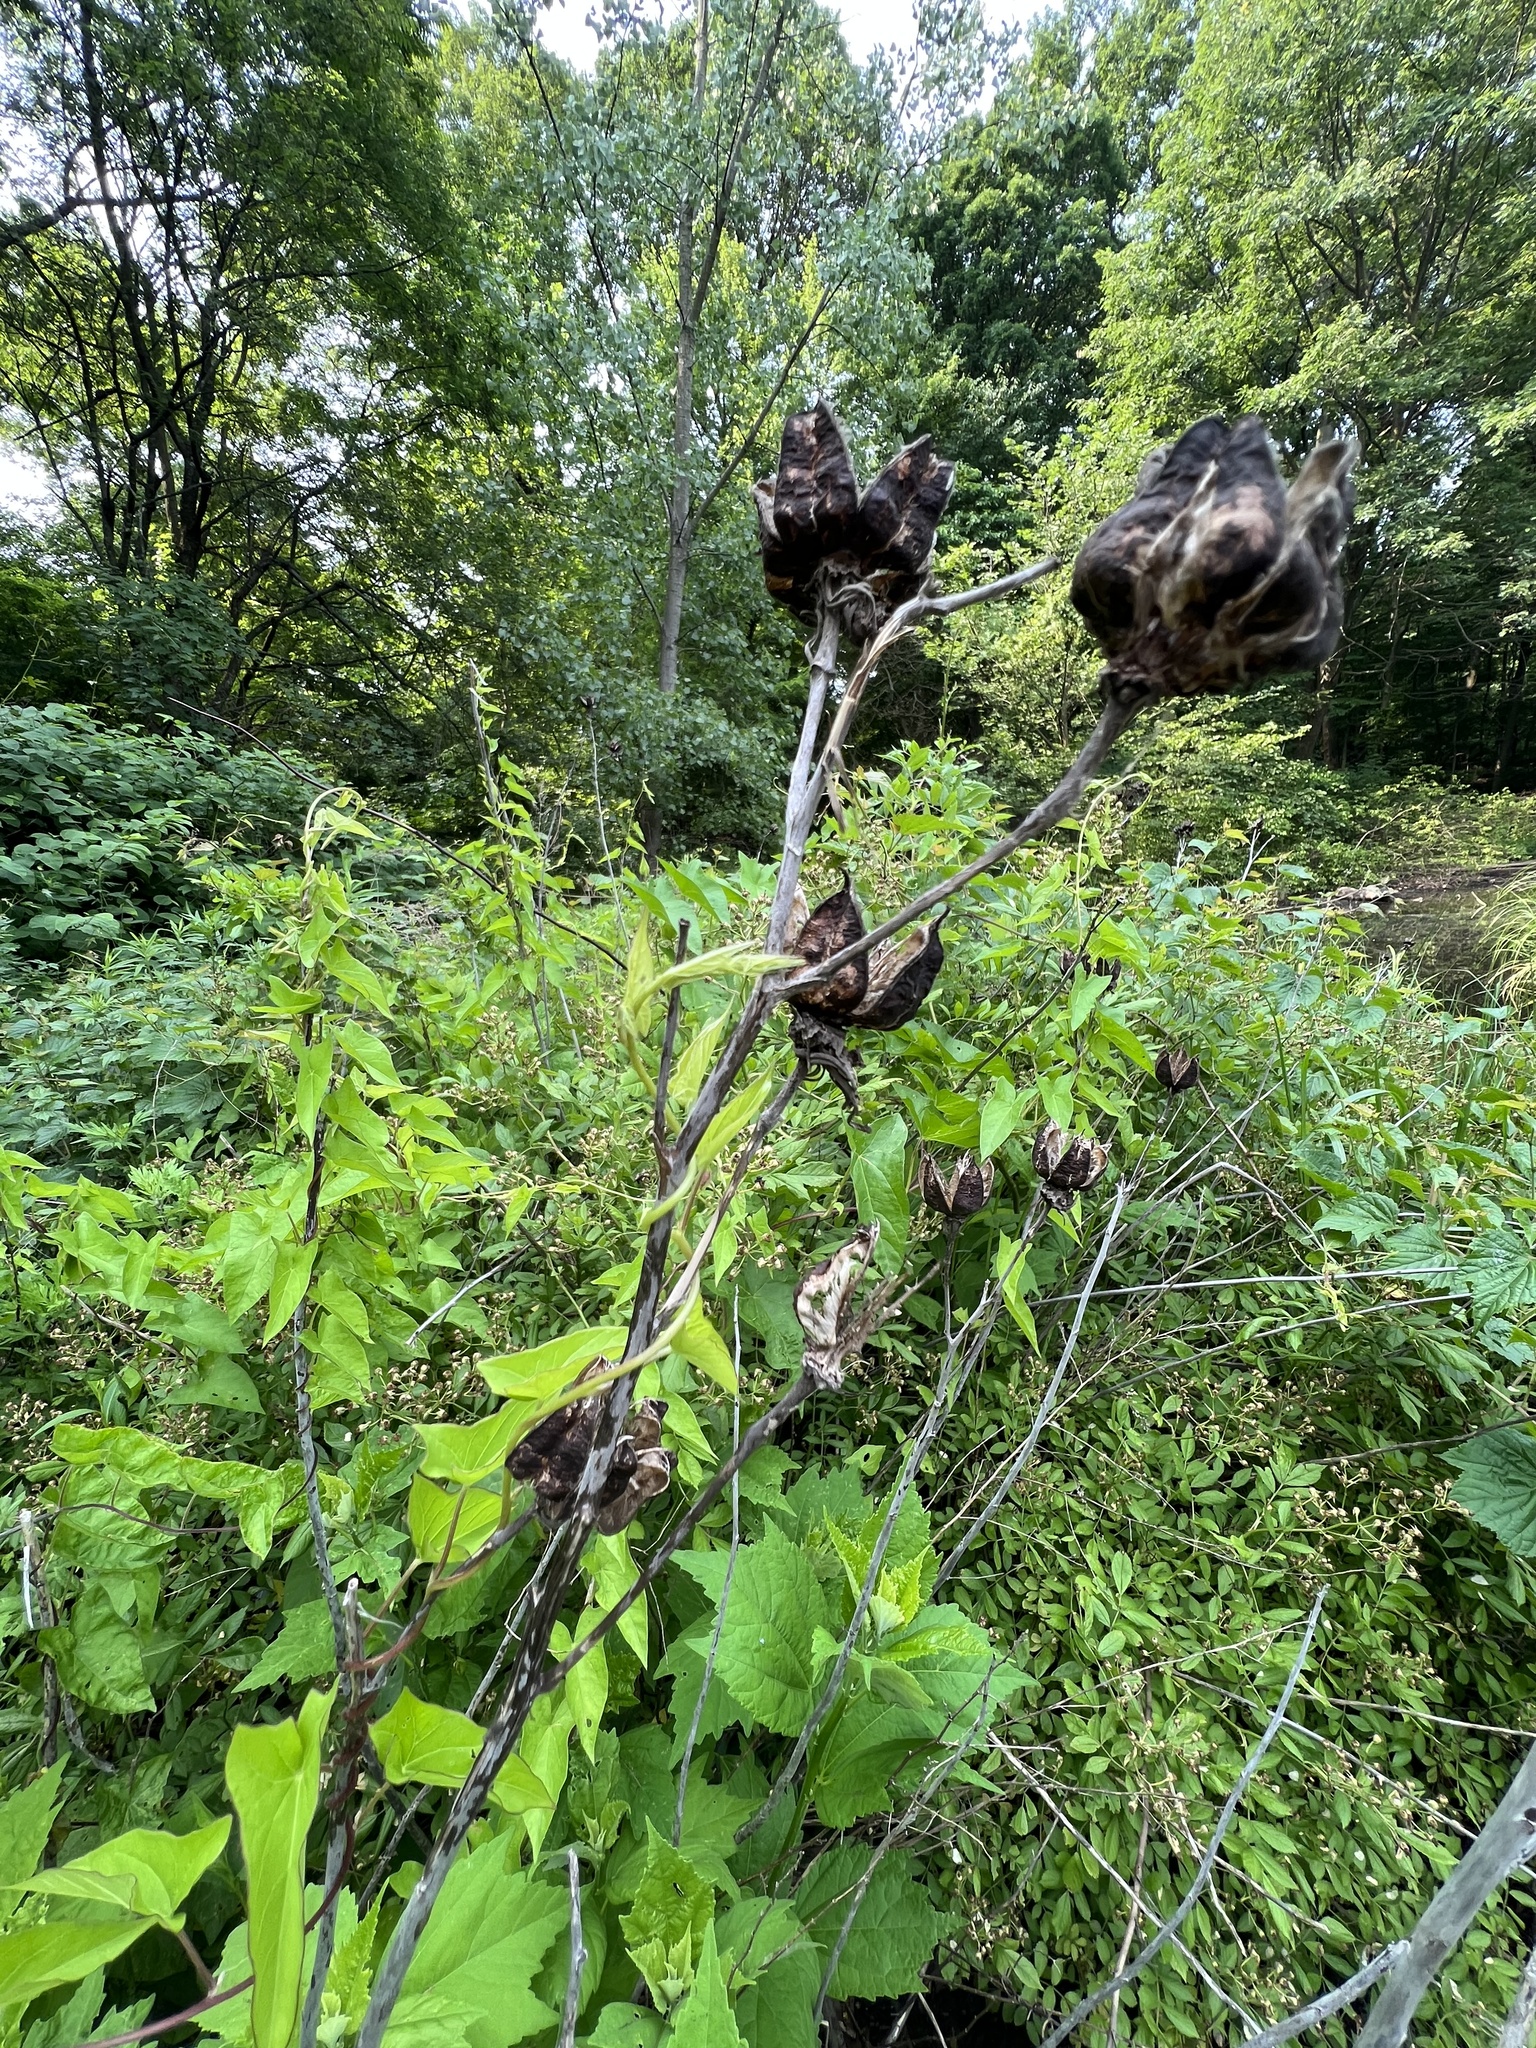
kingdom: Plantae
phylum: Tracheophyta
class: Magnoliopsida
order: Malvales
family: Malvaceae
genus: Hibiscus
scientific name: Hibiscus moscheutos
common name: Common rose-mallow
